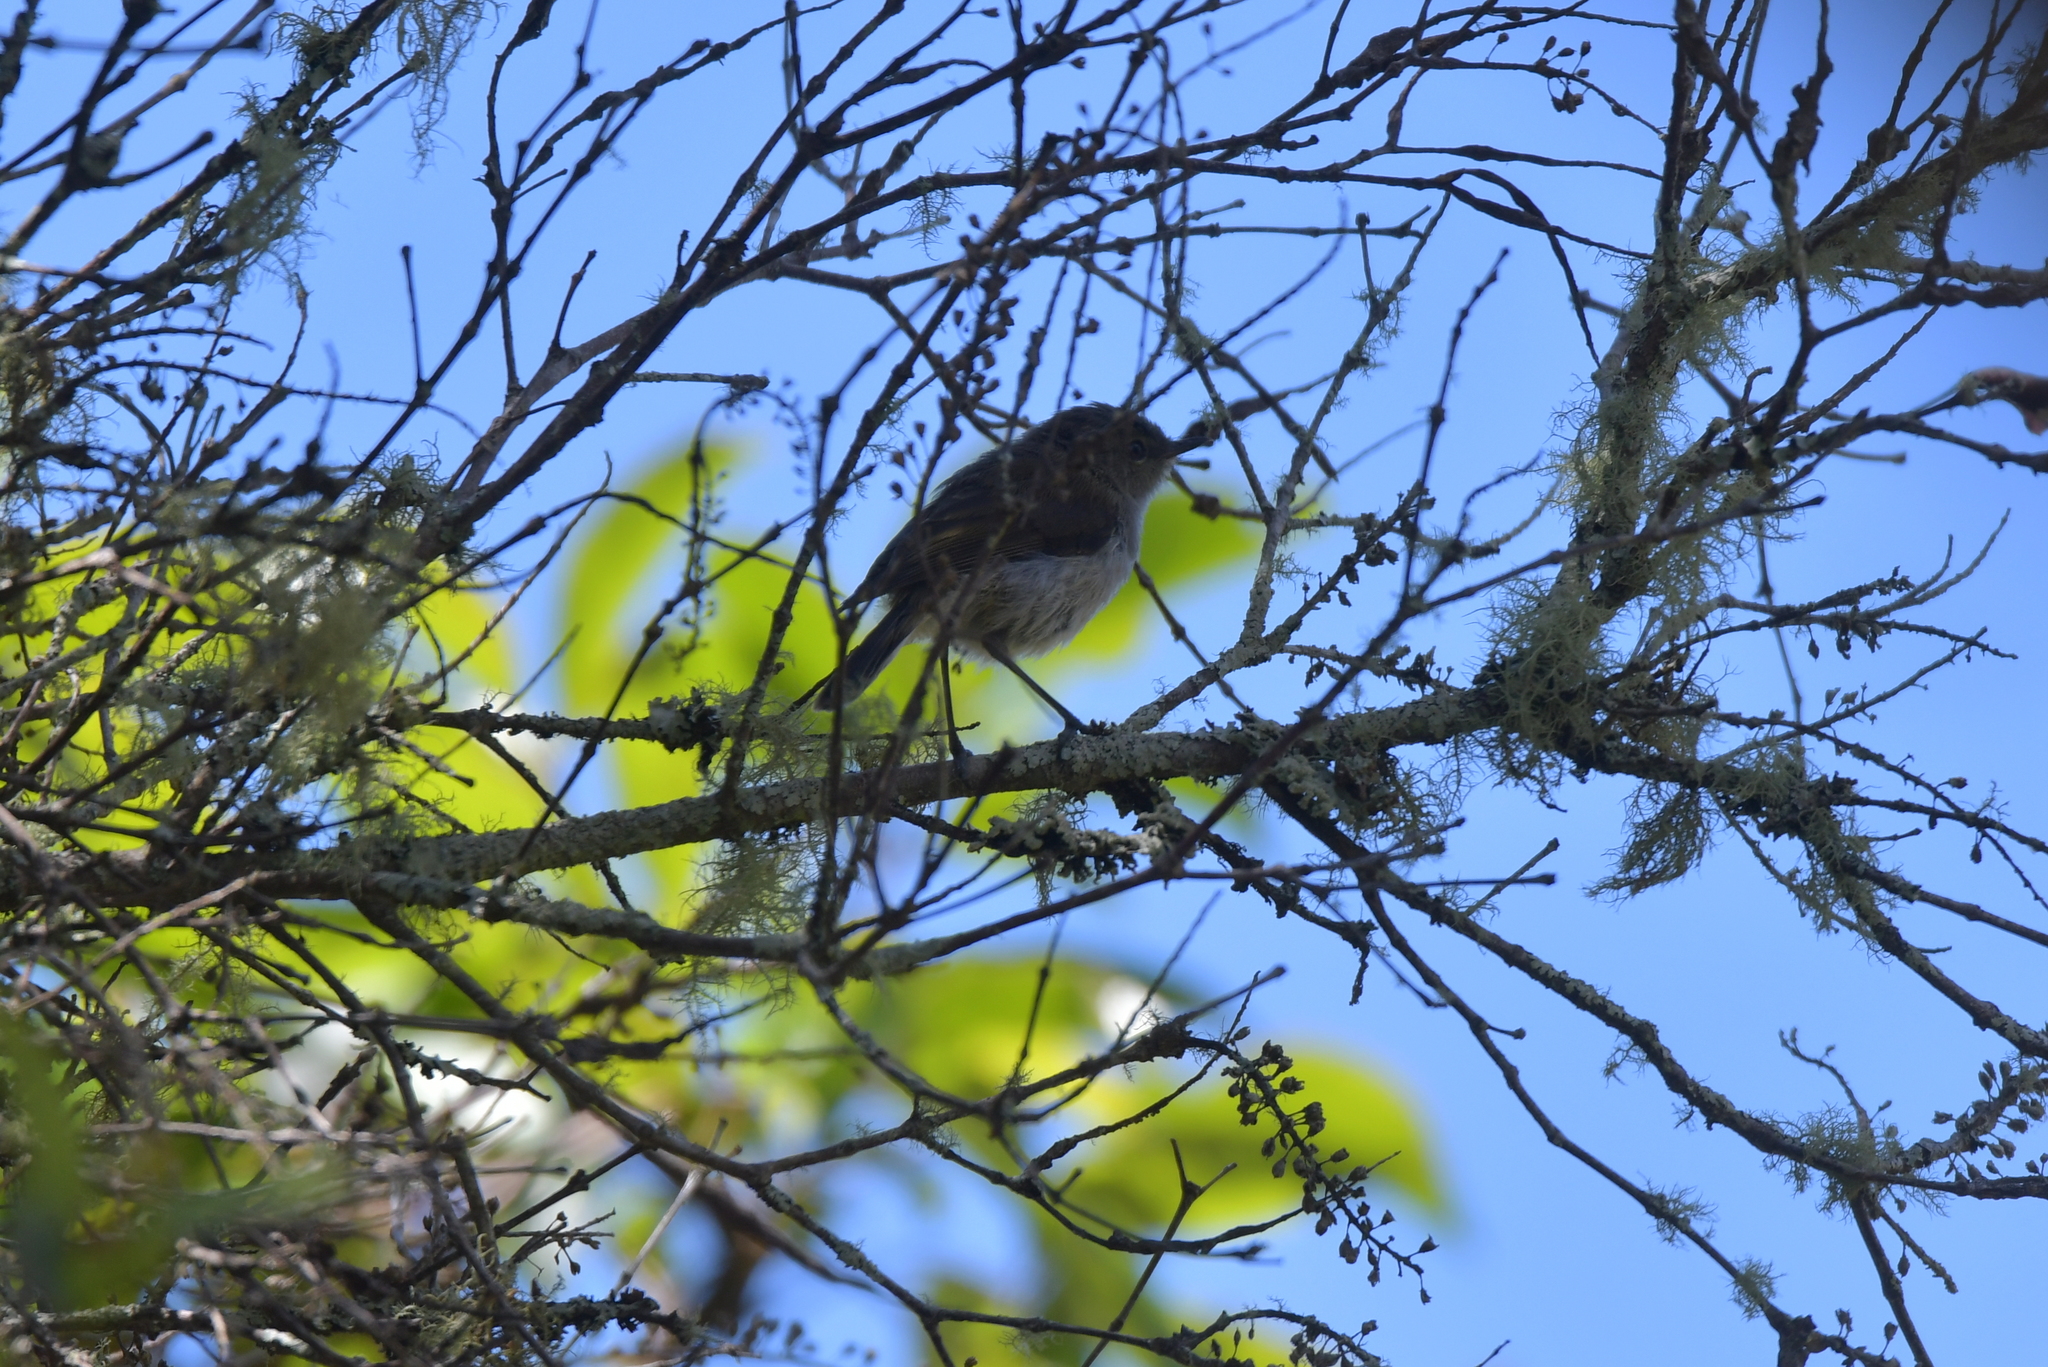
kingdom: Animalia
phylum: Chordata
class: Aves
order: Passeriformes
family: Acanthizidae
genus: Gerygone
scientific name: Gerygone igata
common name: Grey gerygone
